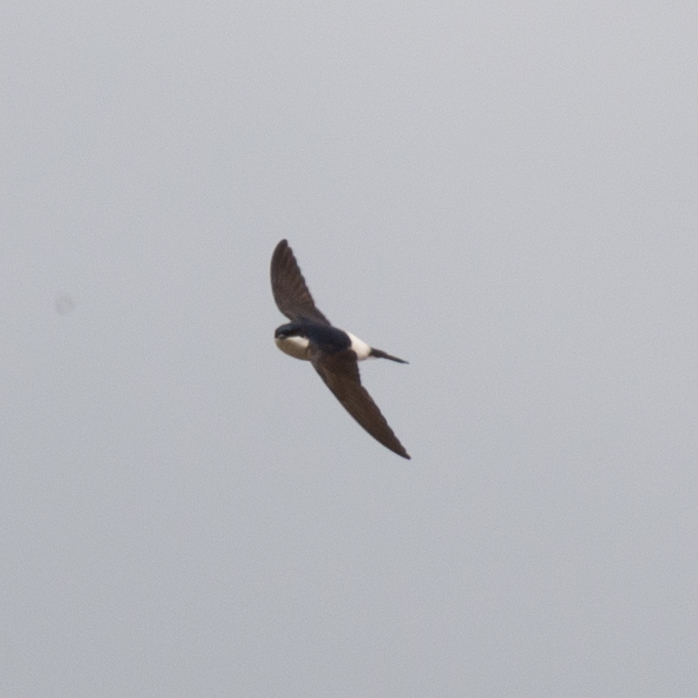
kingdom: Animalia
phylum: Chordata
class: Aves
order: Passeriformes
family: Hirundinidae
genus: Delichon
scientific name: Delichon urbicum
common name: Common house martin
